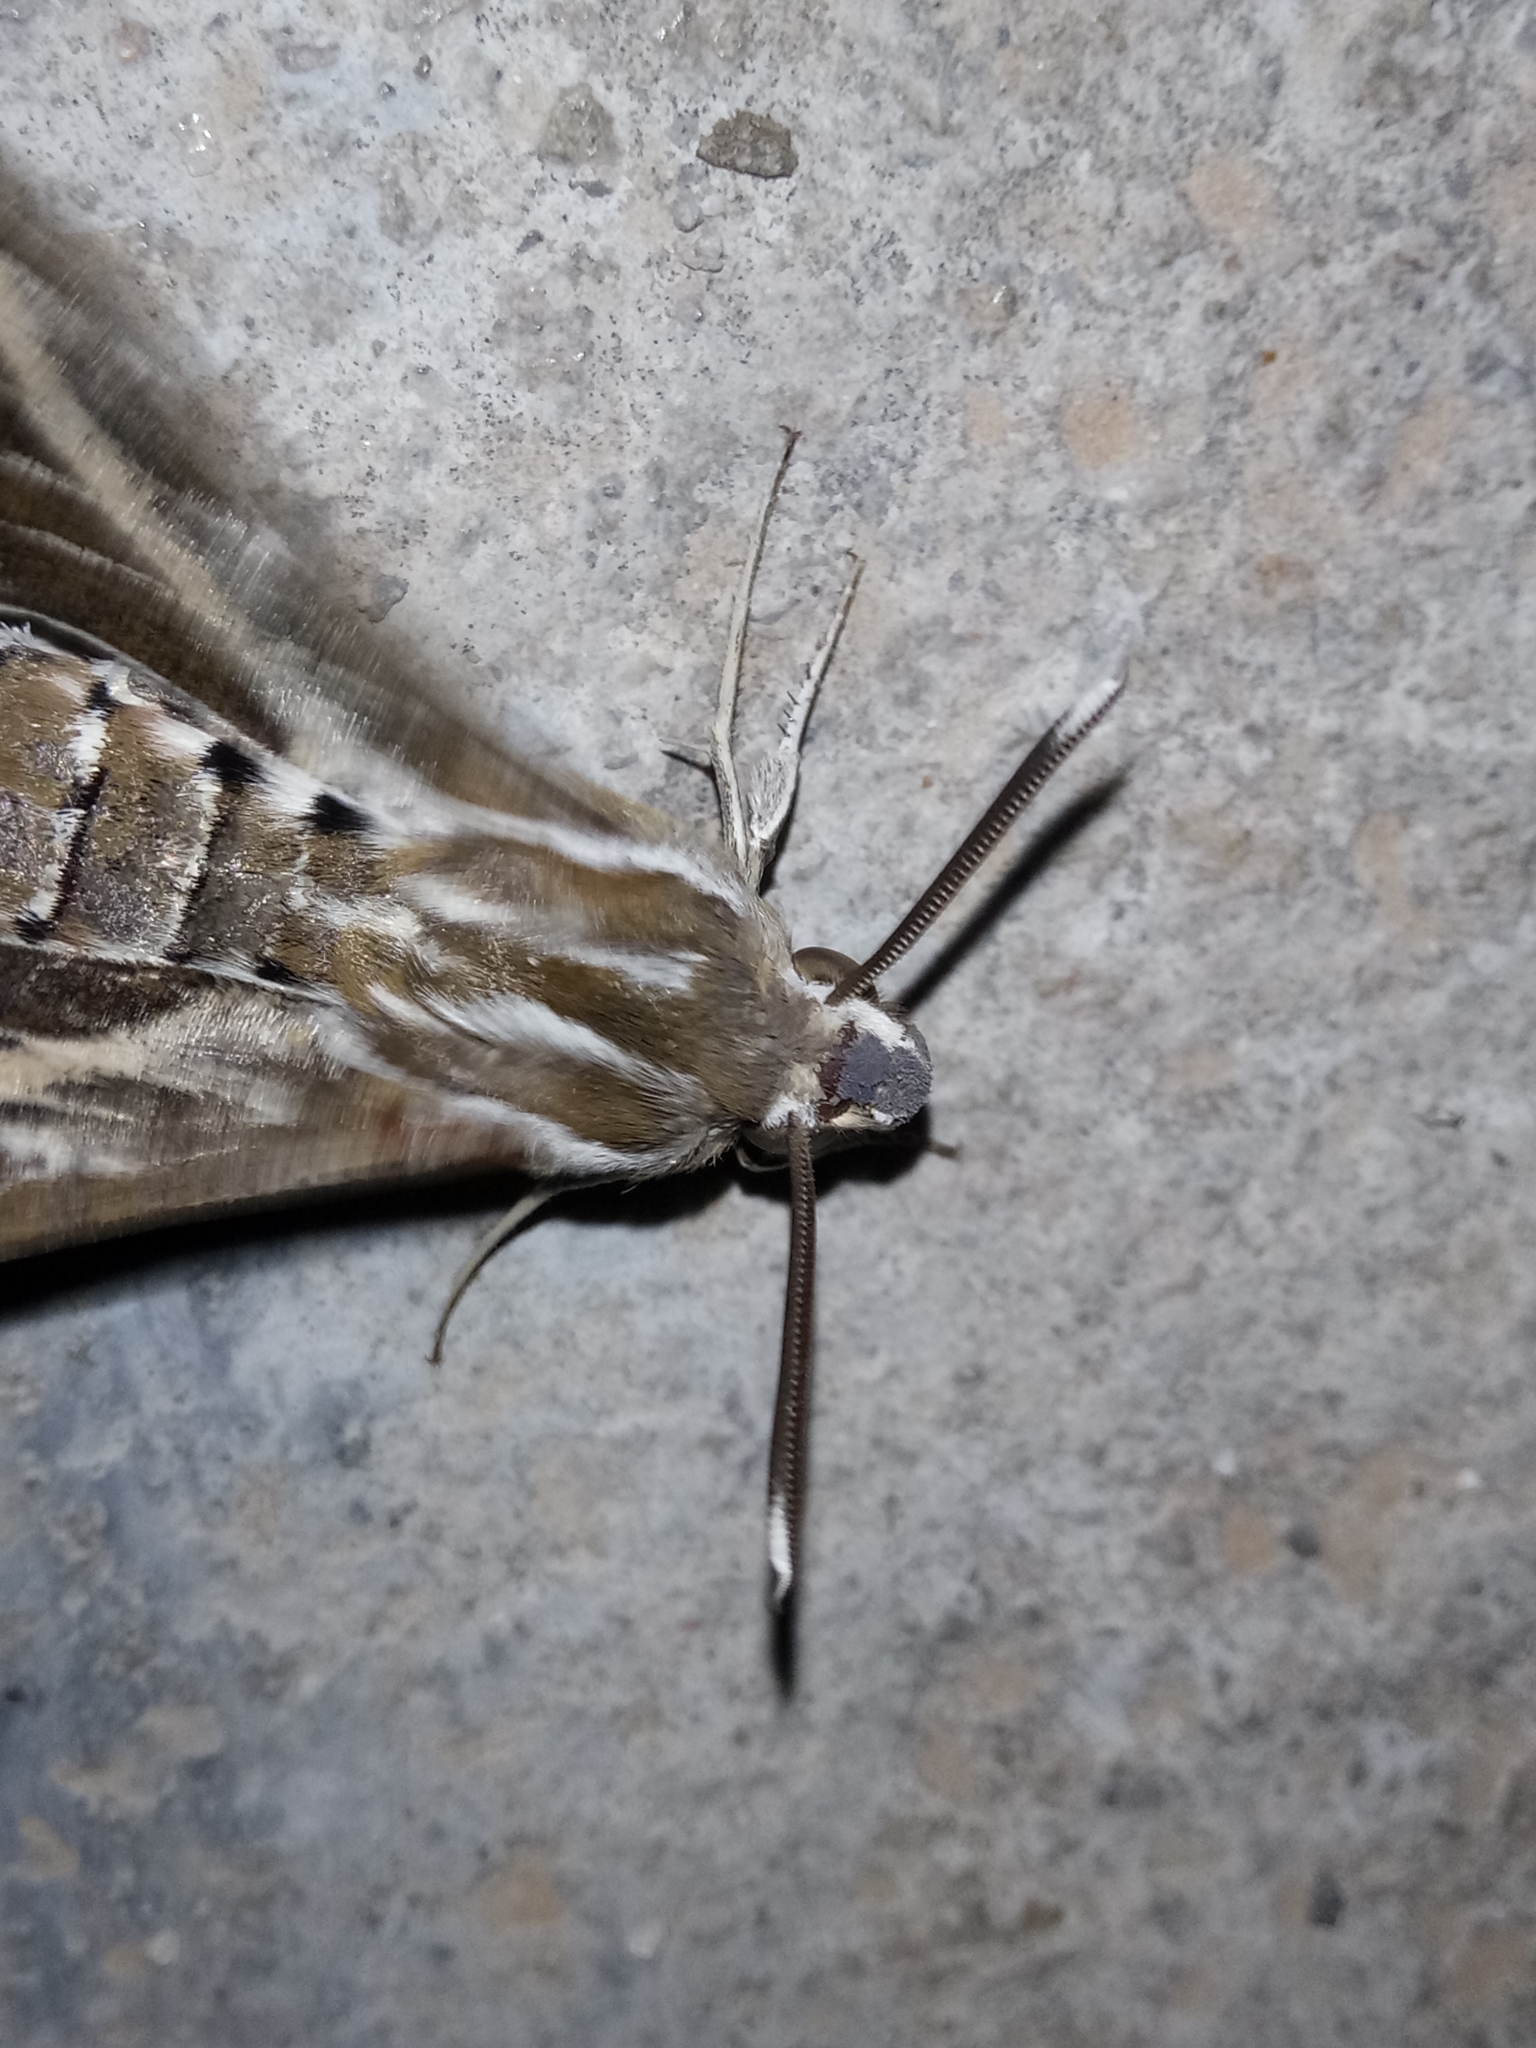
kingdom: Animalia
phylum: Arthropoda
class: Insecta
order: Lepidoptera
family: Sphingidae
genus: Hyles
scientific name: Hyles livornica
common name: Striped hawk-moth
